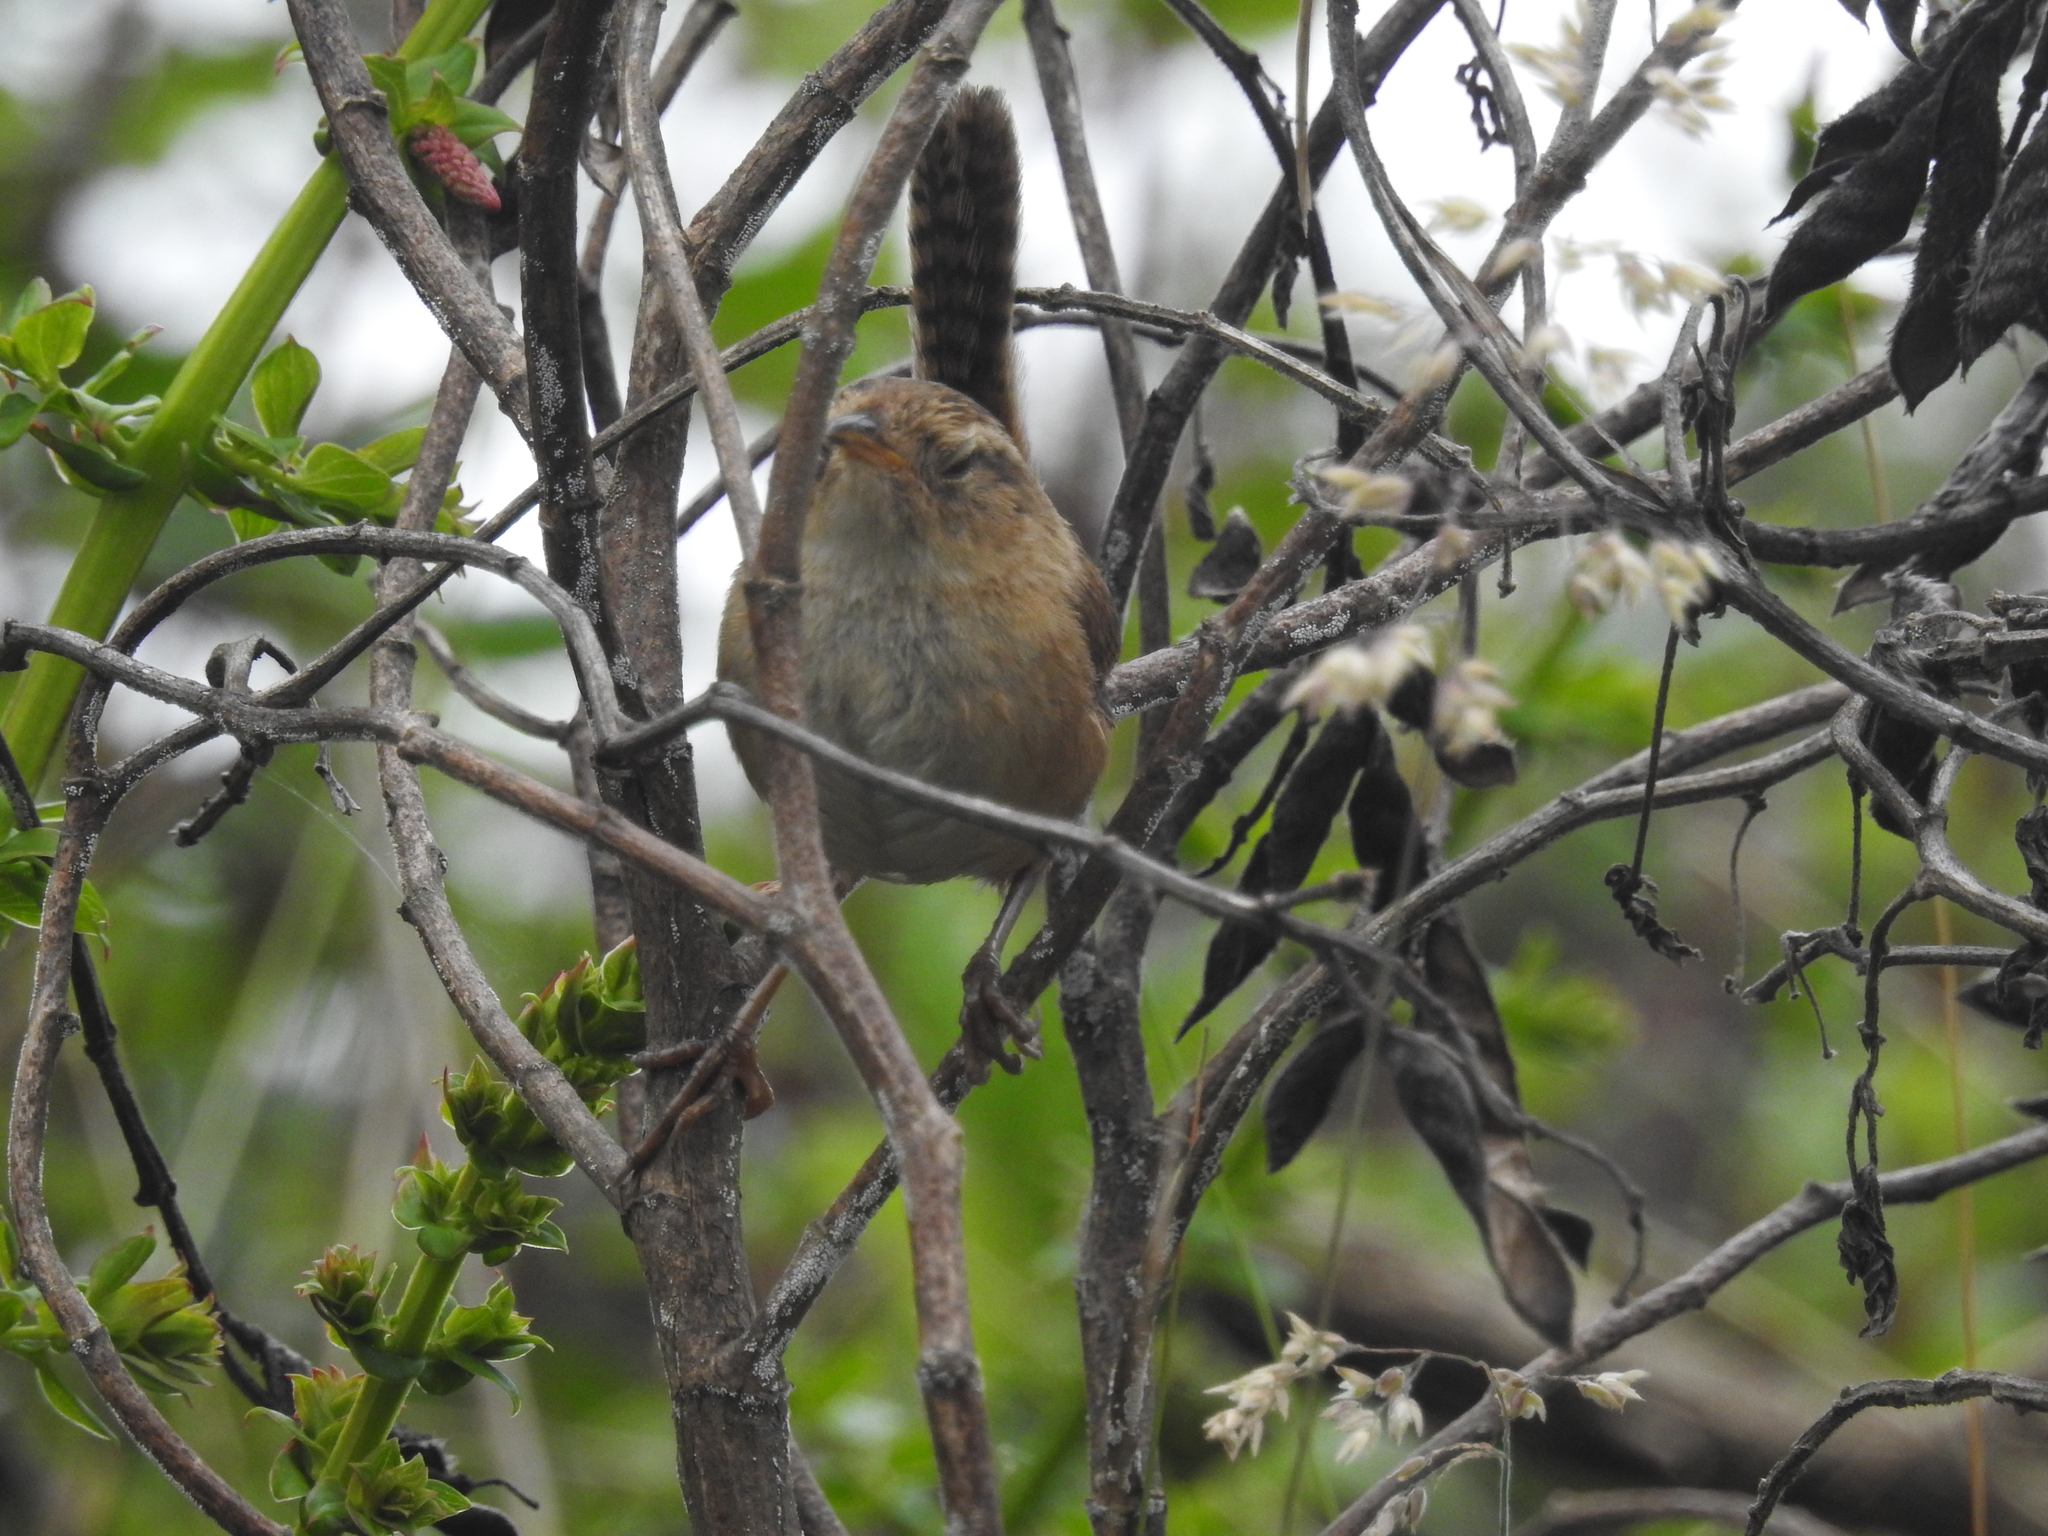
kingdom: Animalia
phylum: Chordata
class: Aves
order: Passeriformes
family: Troglodytidae
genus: Cistothorus
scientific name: Cistothorus platensis
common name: Sedge wren
